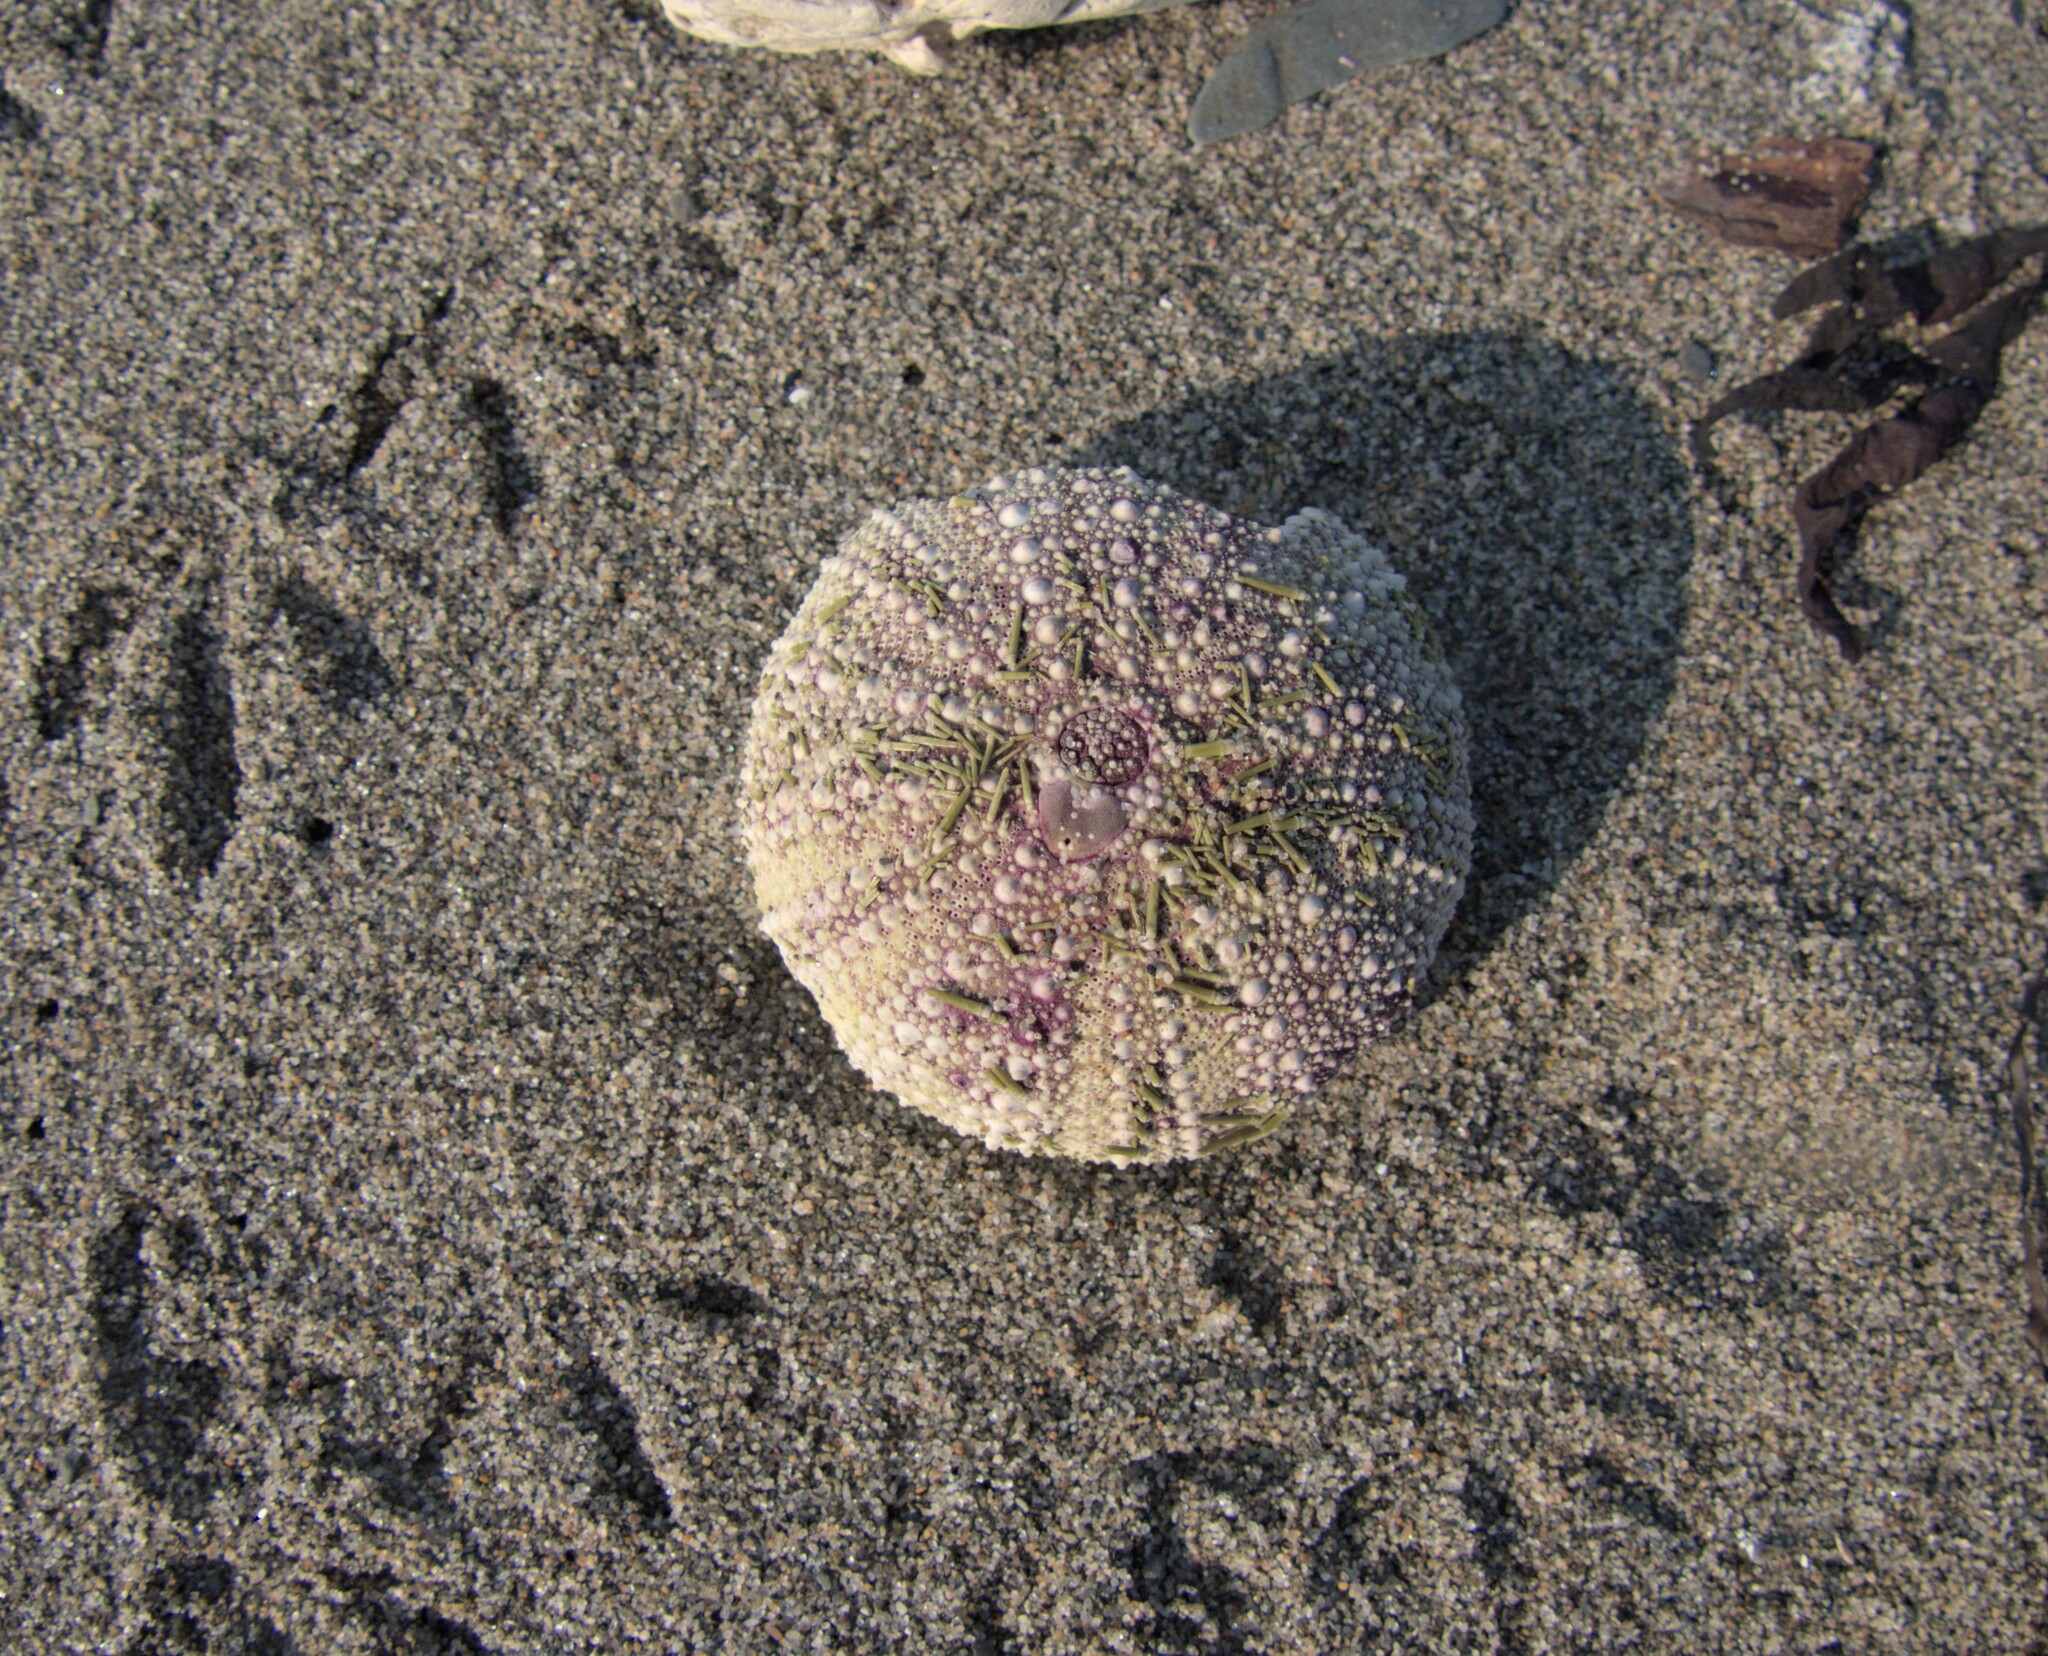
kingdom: Animalia
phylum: Echinodermata
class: Echinoidea
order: Camarodonta
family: Strongylocentrotidae
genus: Strongylocentrotus
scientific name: Strongylocentrotus droebachiensis
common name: Northern sea urchin
